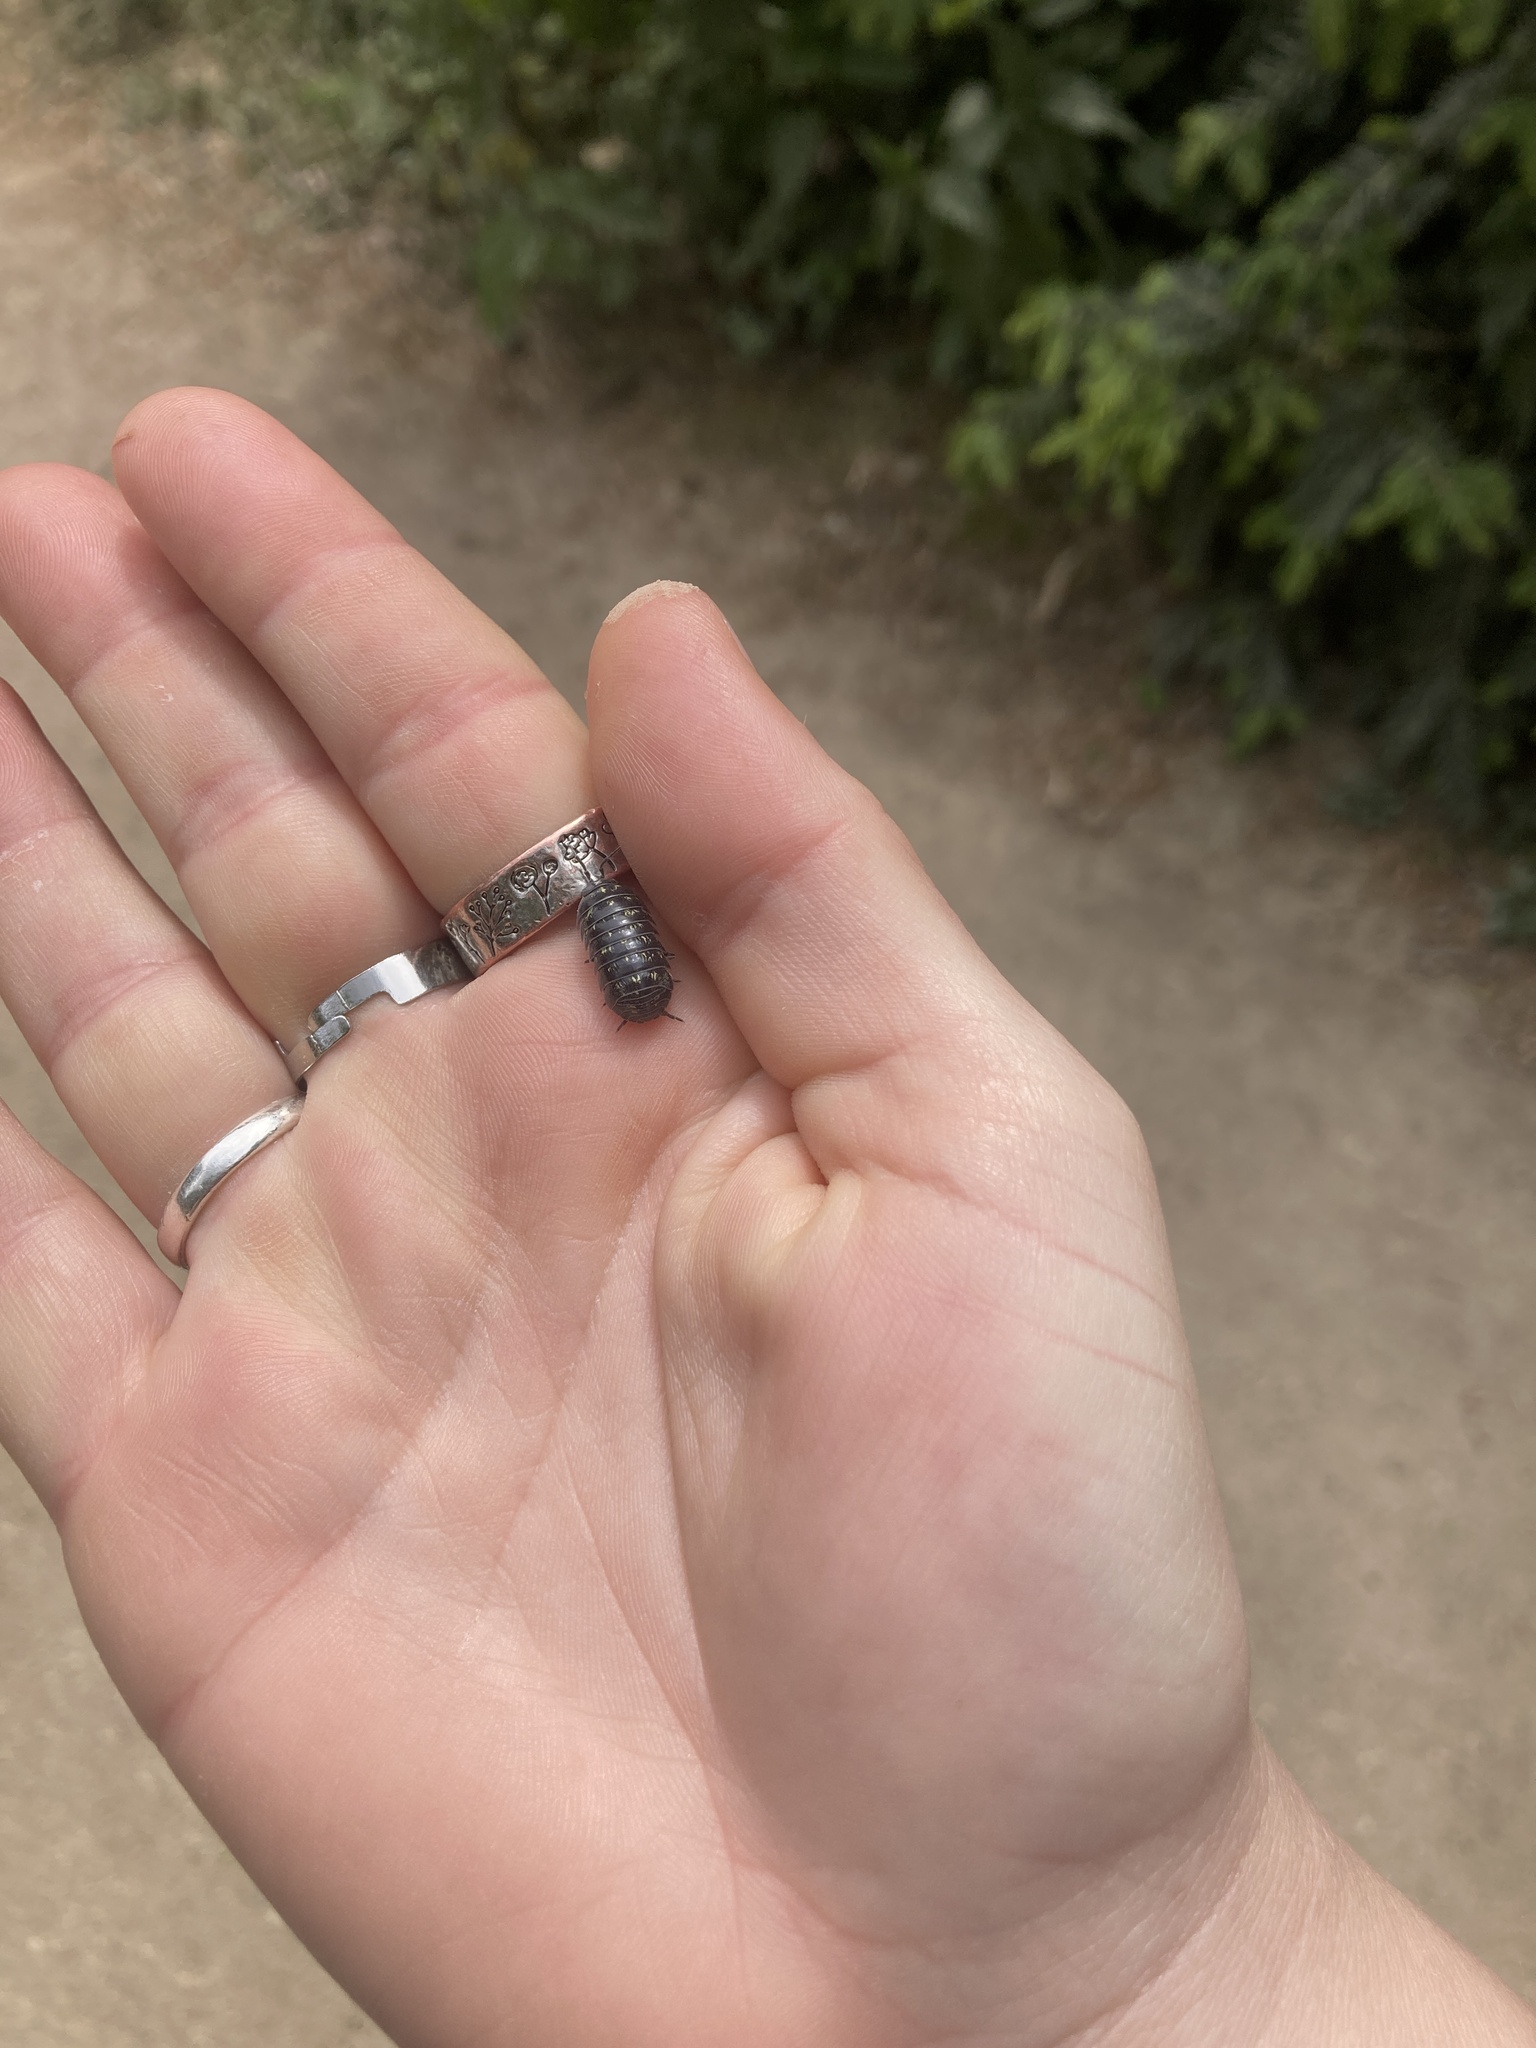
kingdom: Animalia
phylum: Arthropoda
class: Malacostraca
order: Isopoda
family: Armadillidiidae
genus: Armadillidium
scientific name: Armadillidium vulgare
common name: Common pill woodlouse
